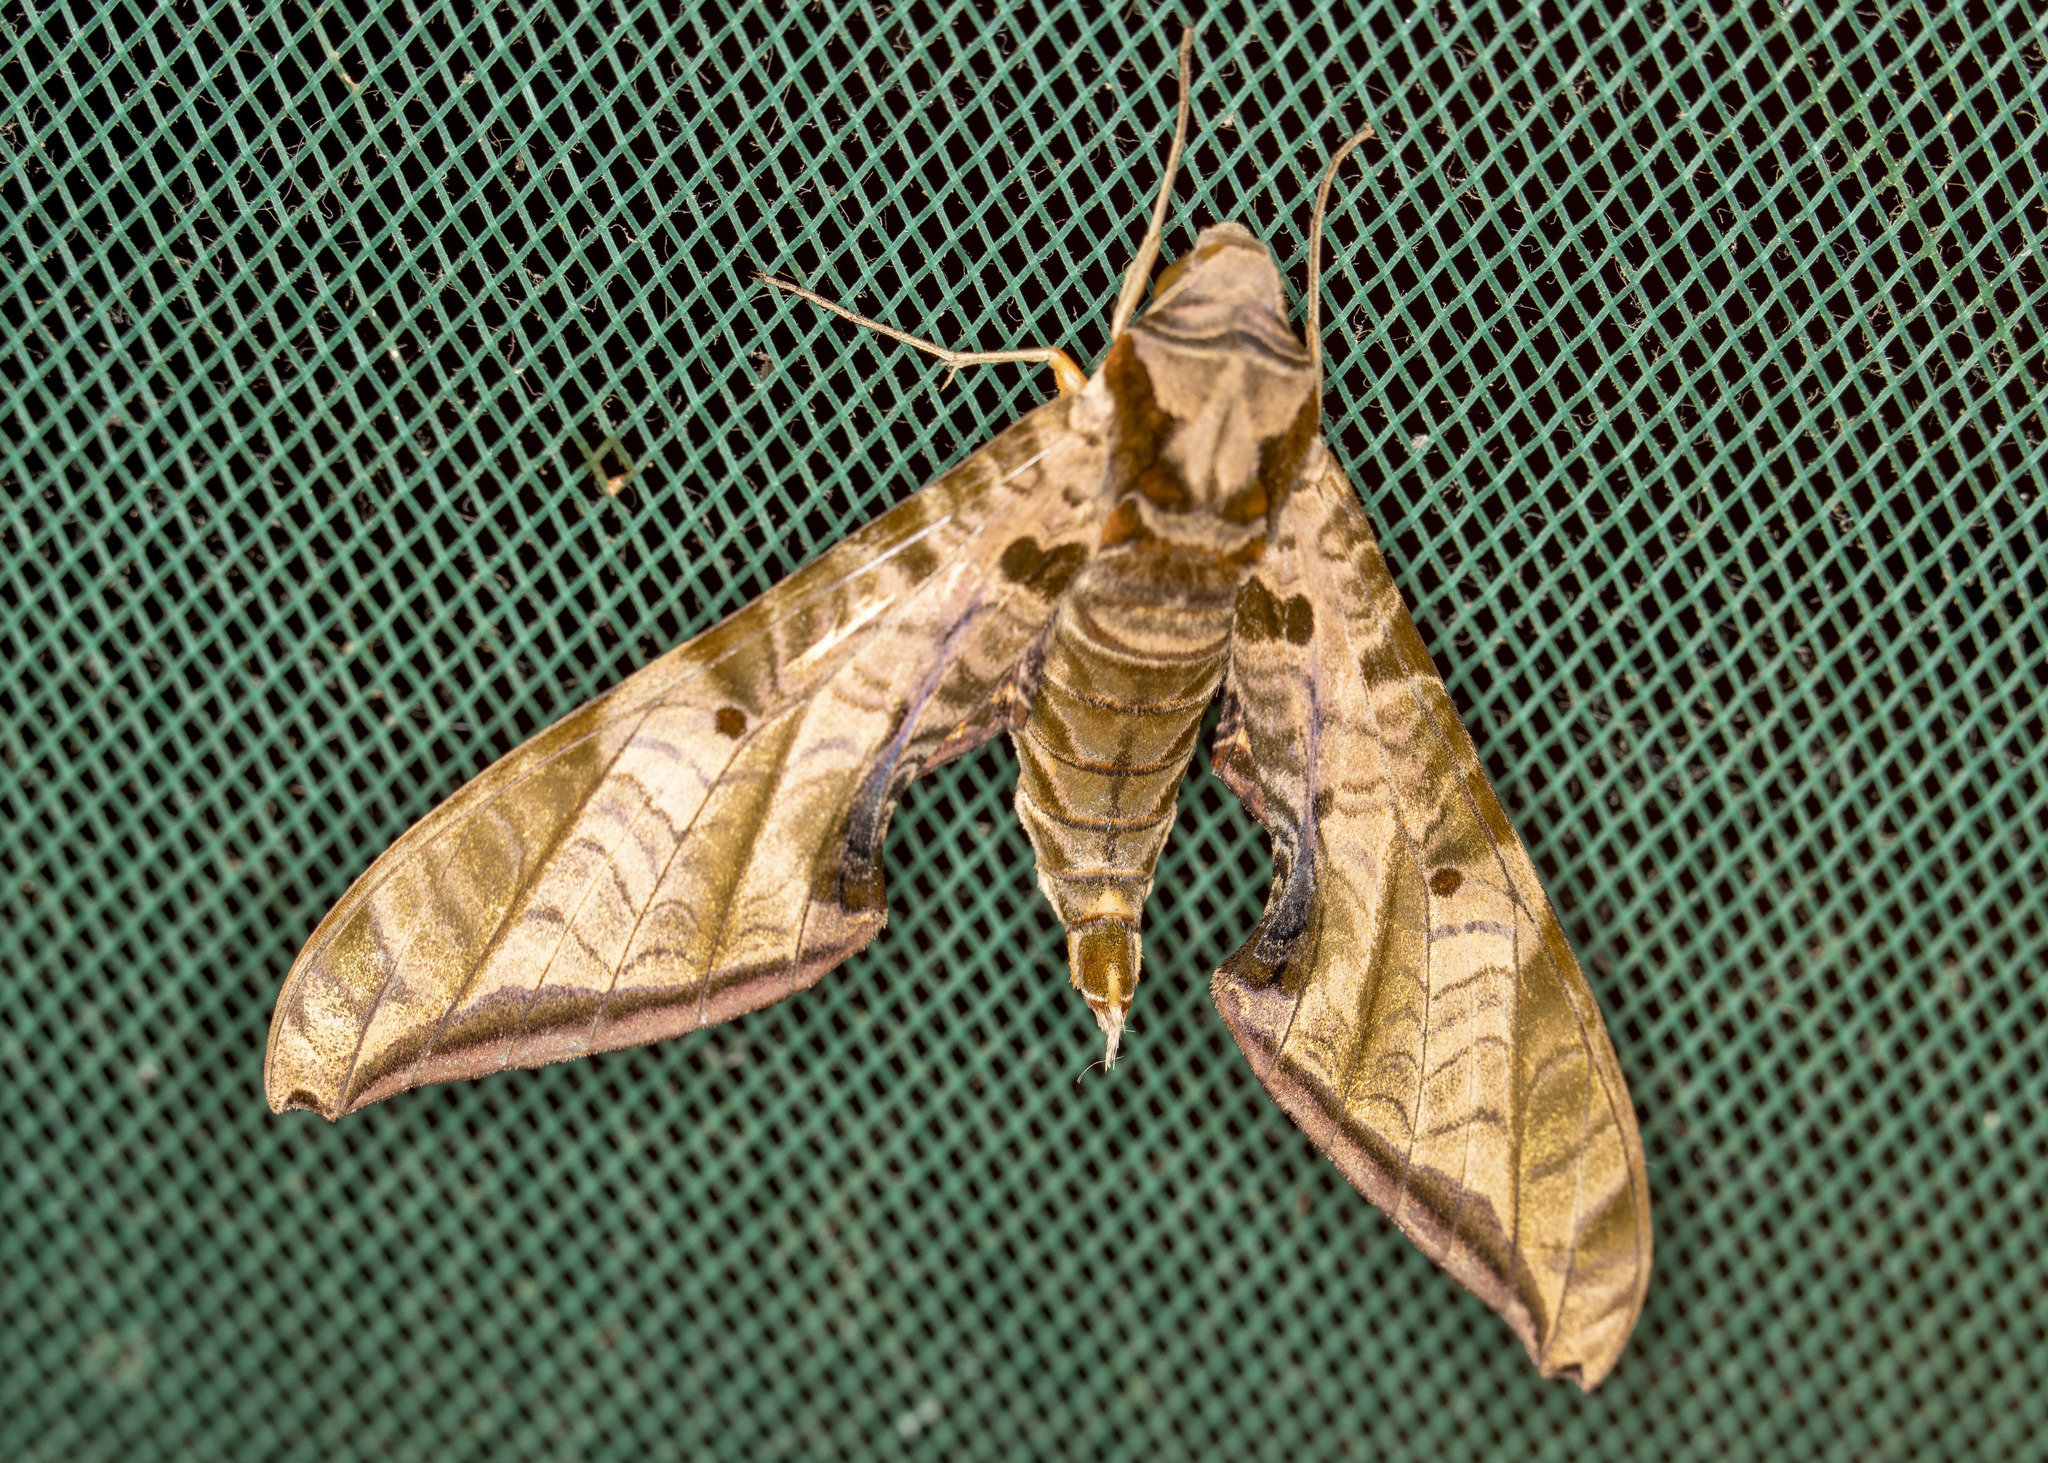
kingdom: Animalia
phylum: Arthropoda
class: Insecta
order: Lepidoptera
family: Sphingidae
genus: Protambulyx
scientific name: Protambulyx euryalus
